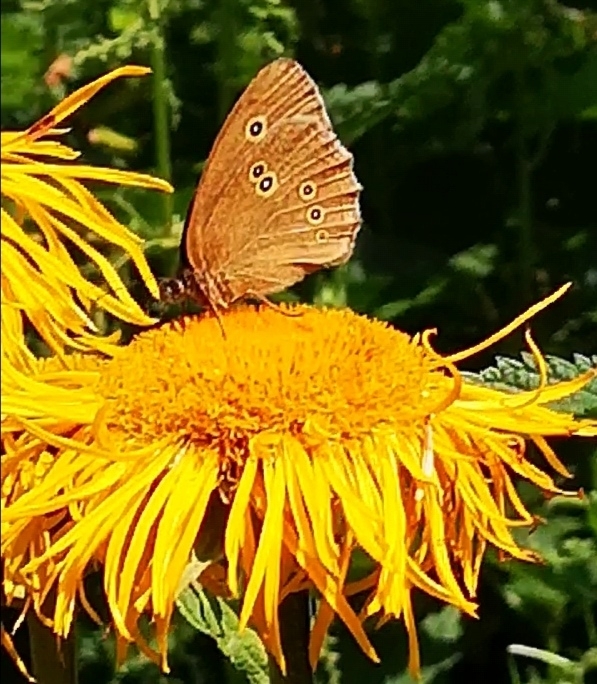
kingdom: Animalia
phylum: Arthropoda
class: Insecta
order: Lepidoptera
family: Nymphalidae
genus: Aphantopus
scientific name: Aphantopus hyperantus
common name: Ringlet
